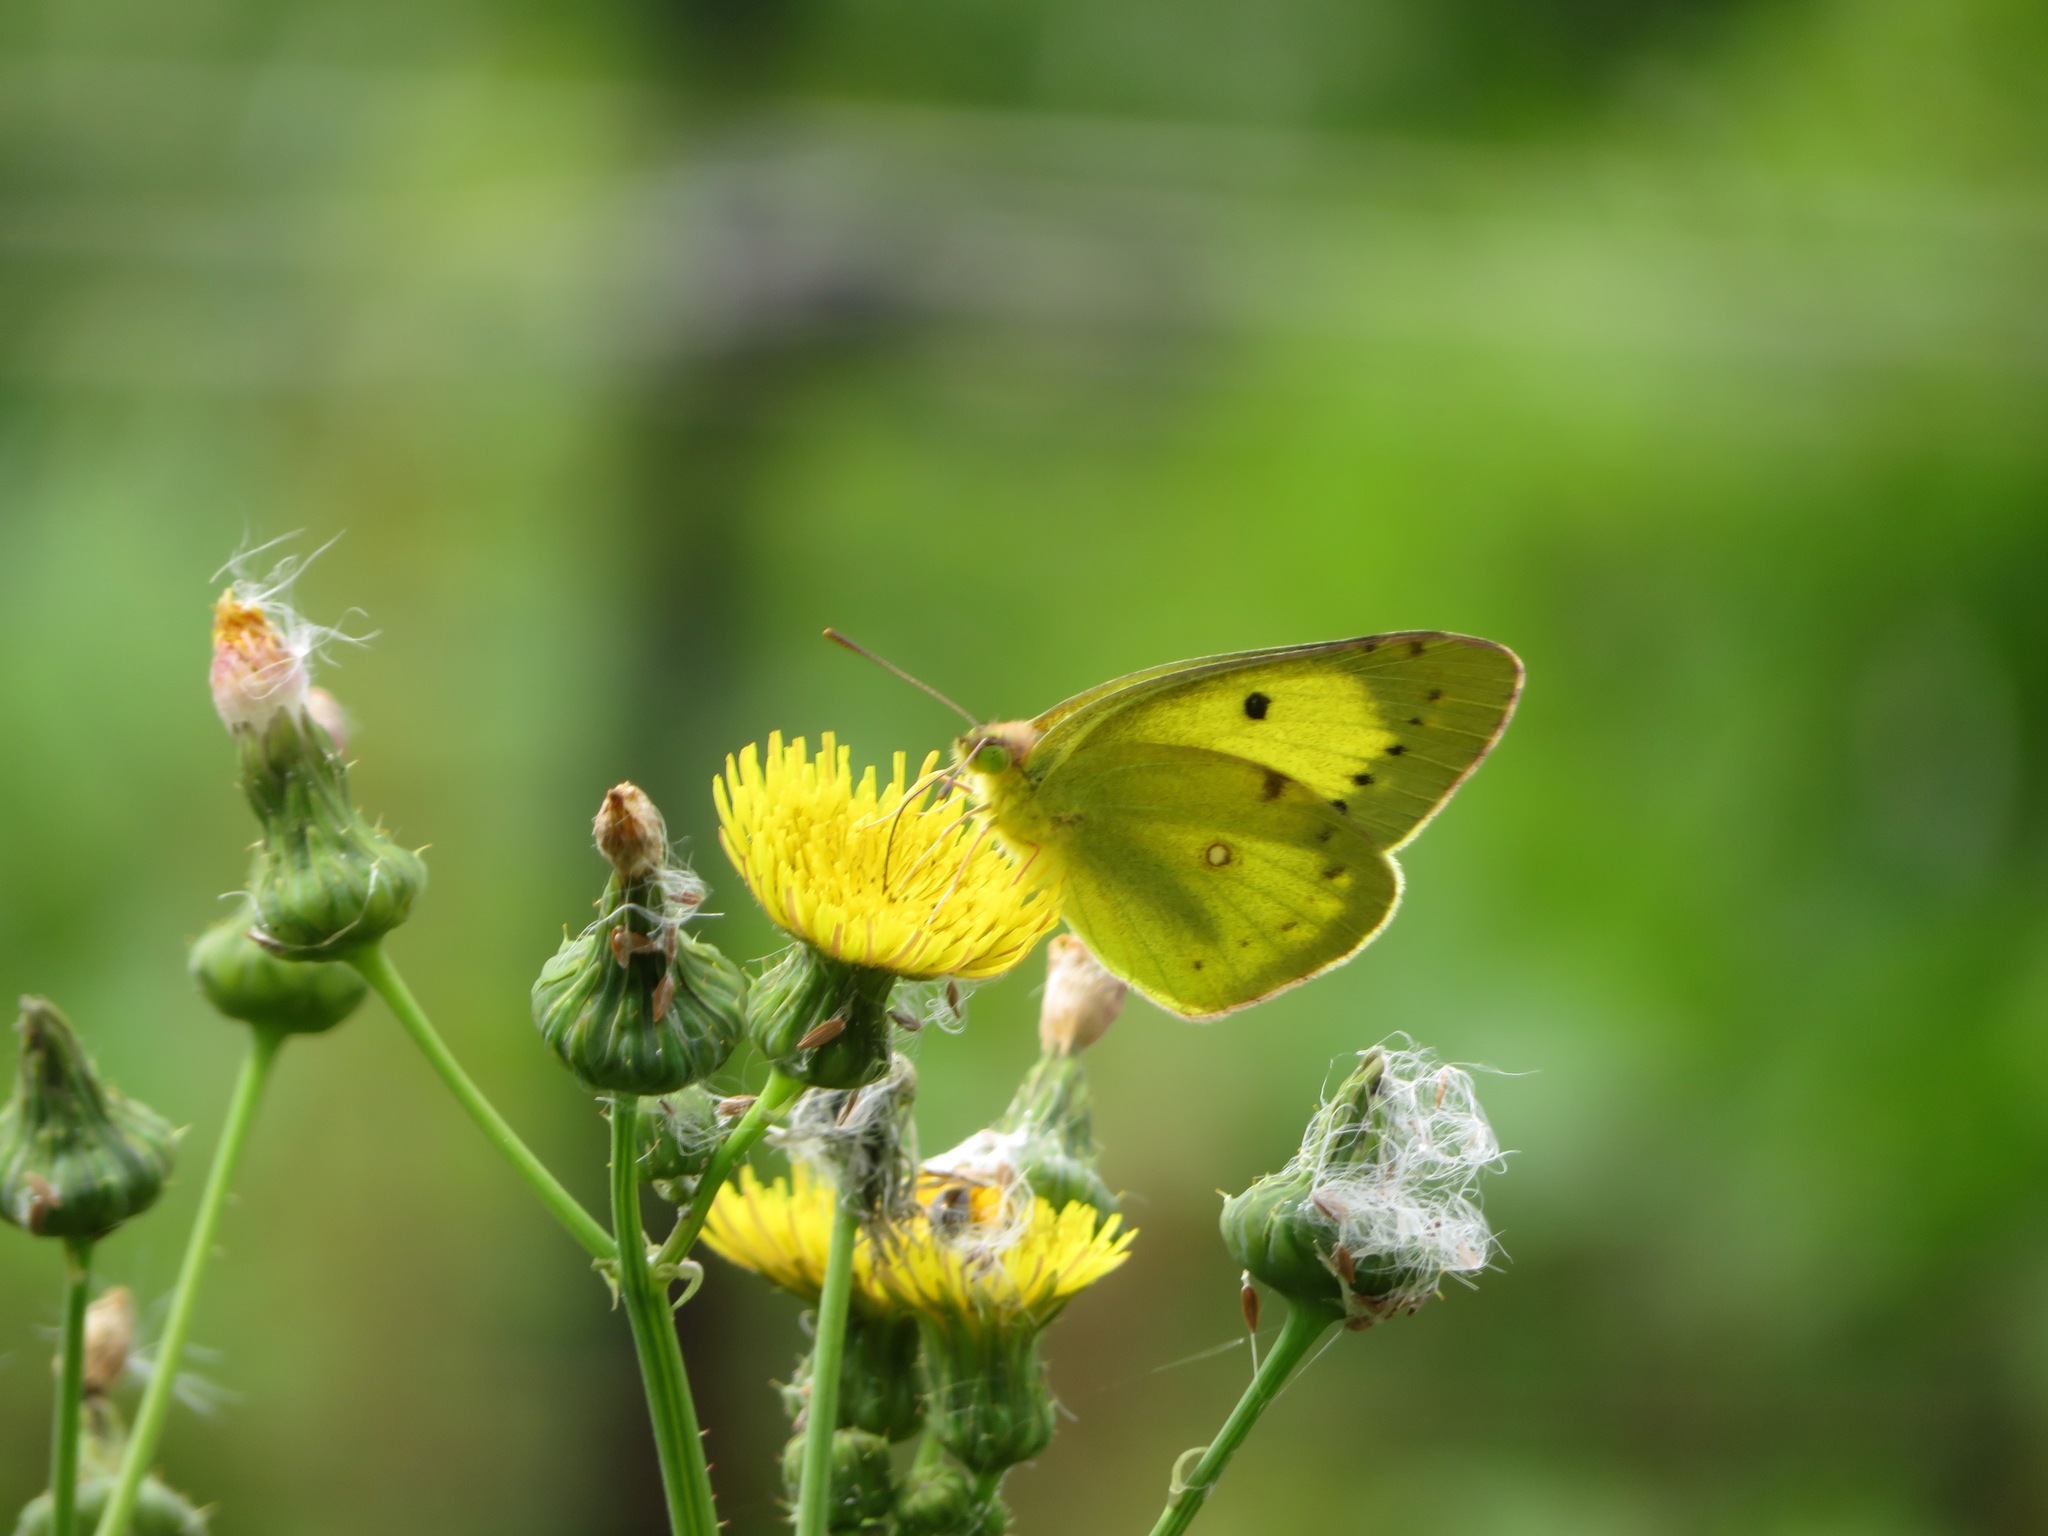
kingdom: Animalia
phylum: Arthropoda
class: Insecta
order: Lepidoptera
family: Pieridae
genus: Colias
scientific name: Colias poliographus
